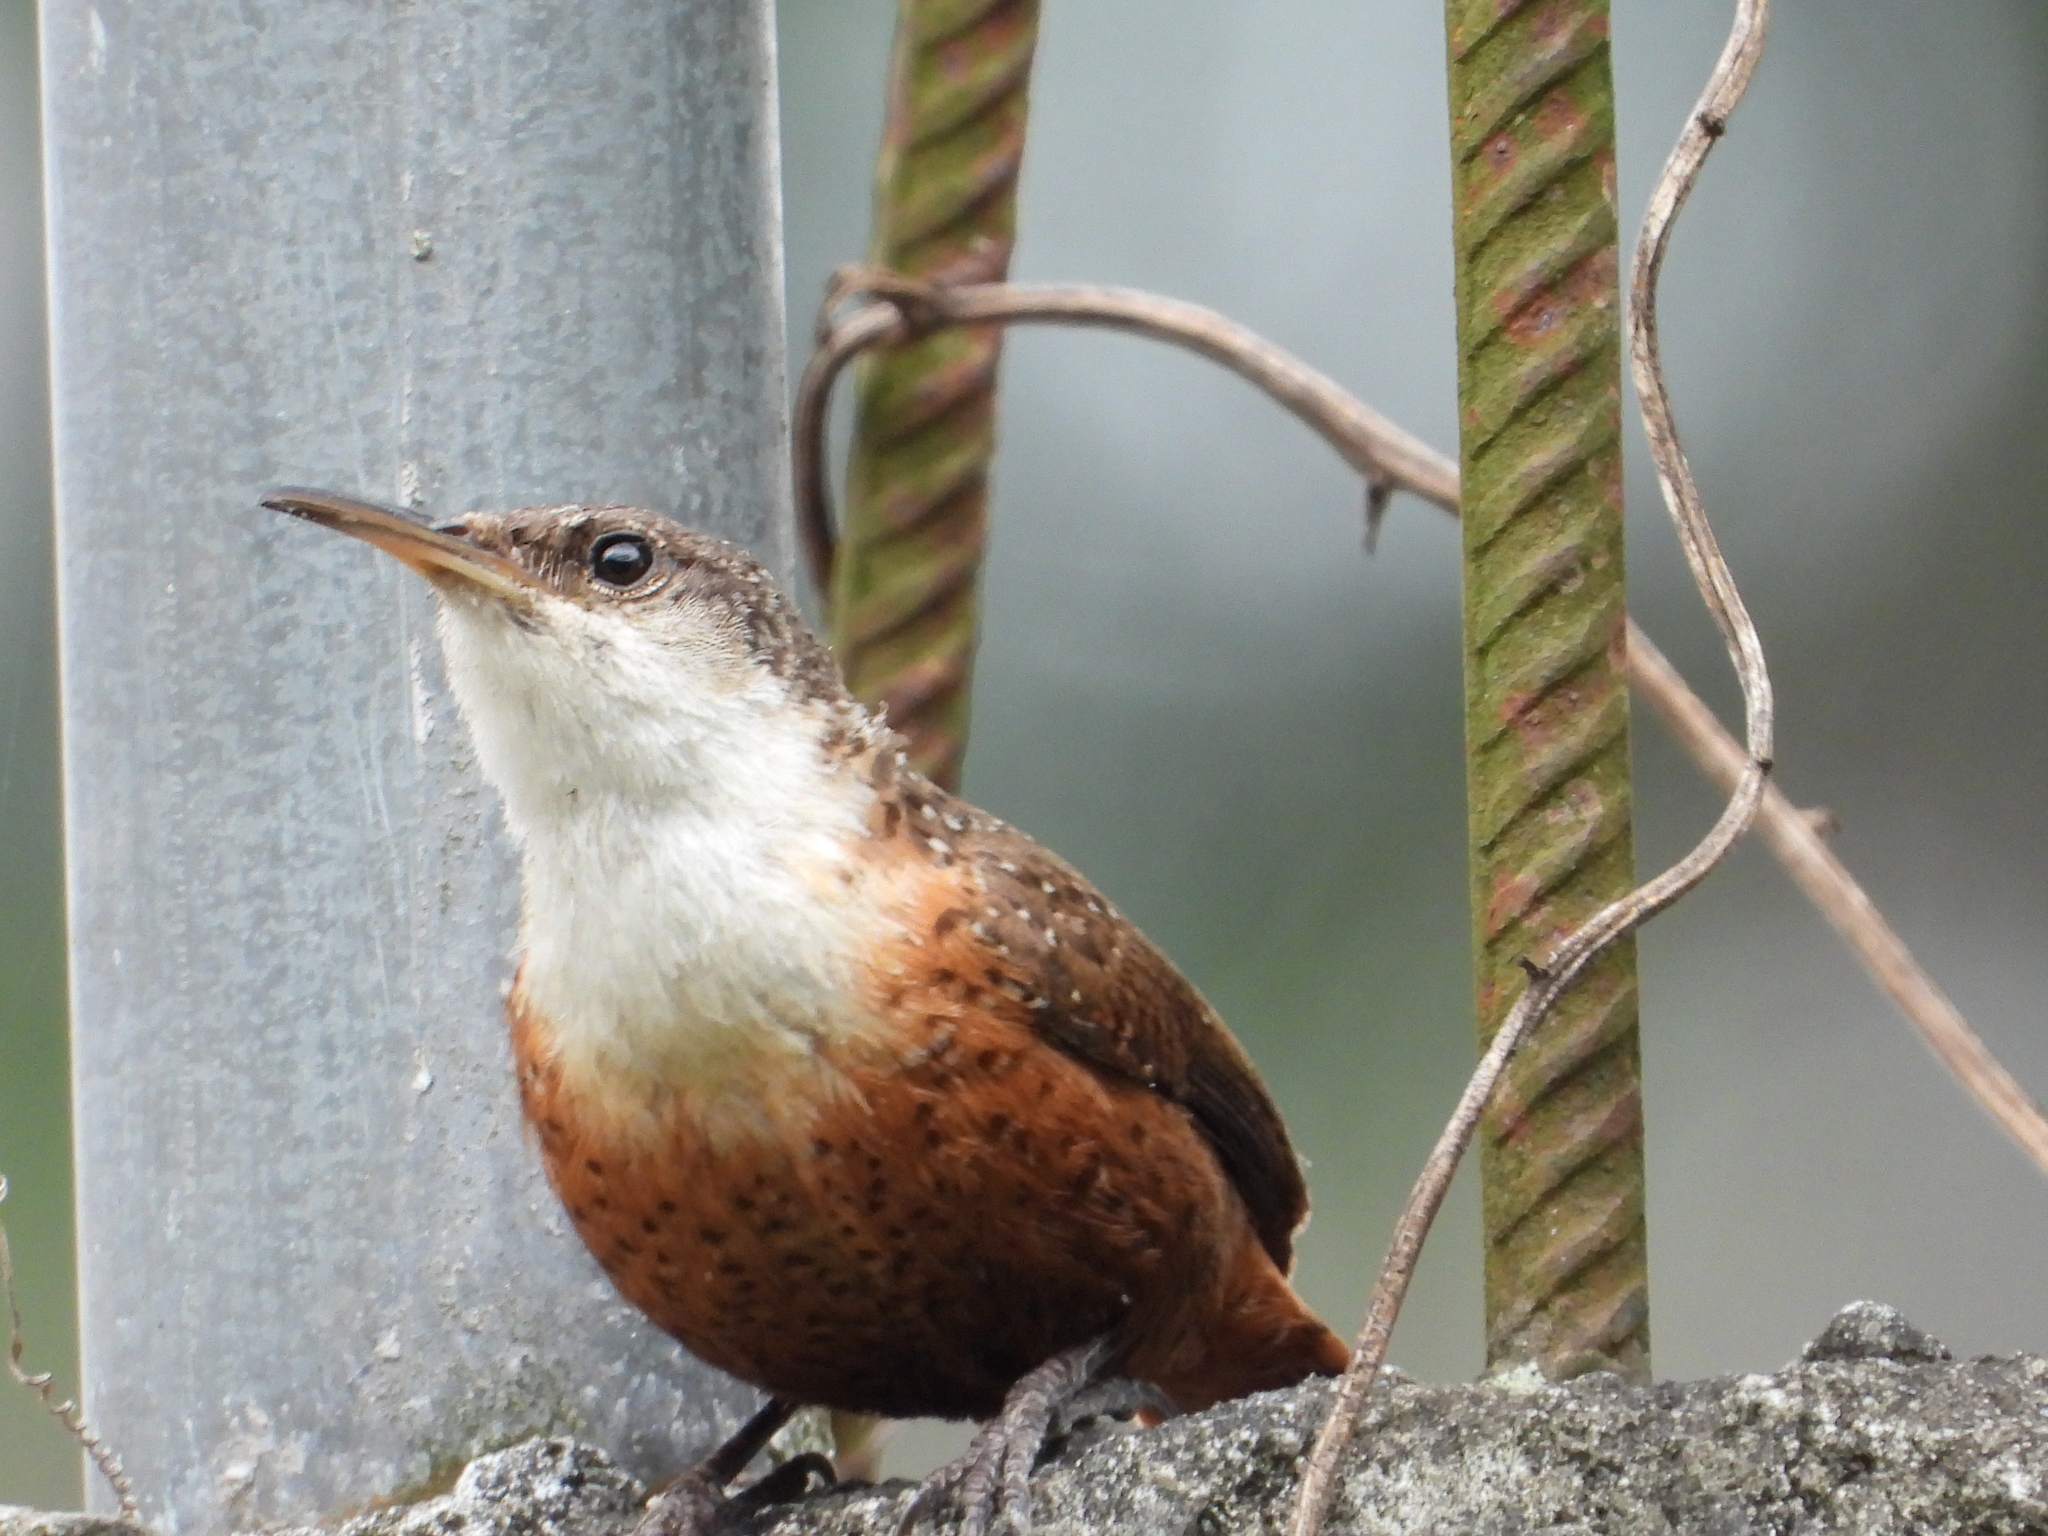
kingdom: Animalia
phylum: Chordata
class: Aves
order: Passeriformes
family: Troglodytidae
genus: Catherpes
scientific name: Catherpes mexicanus
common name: Canyon wren
